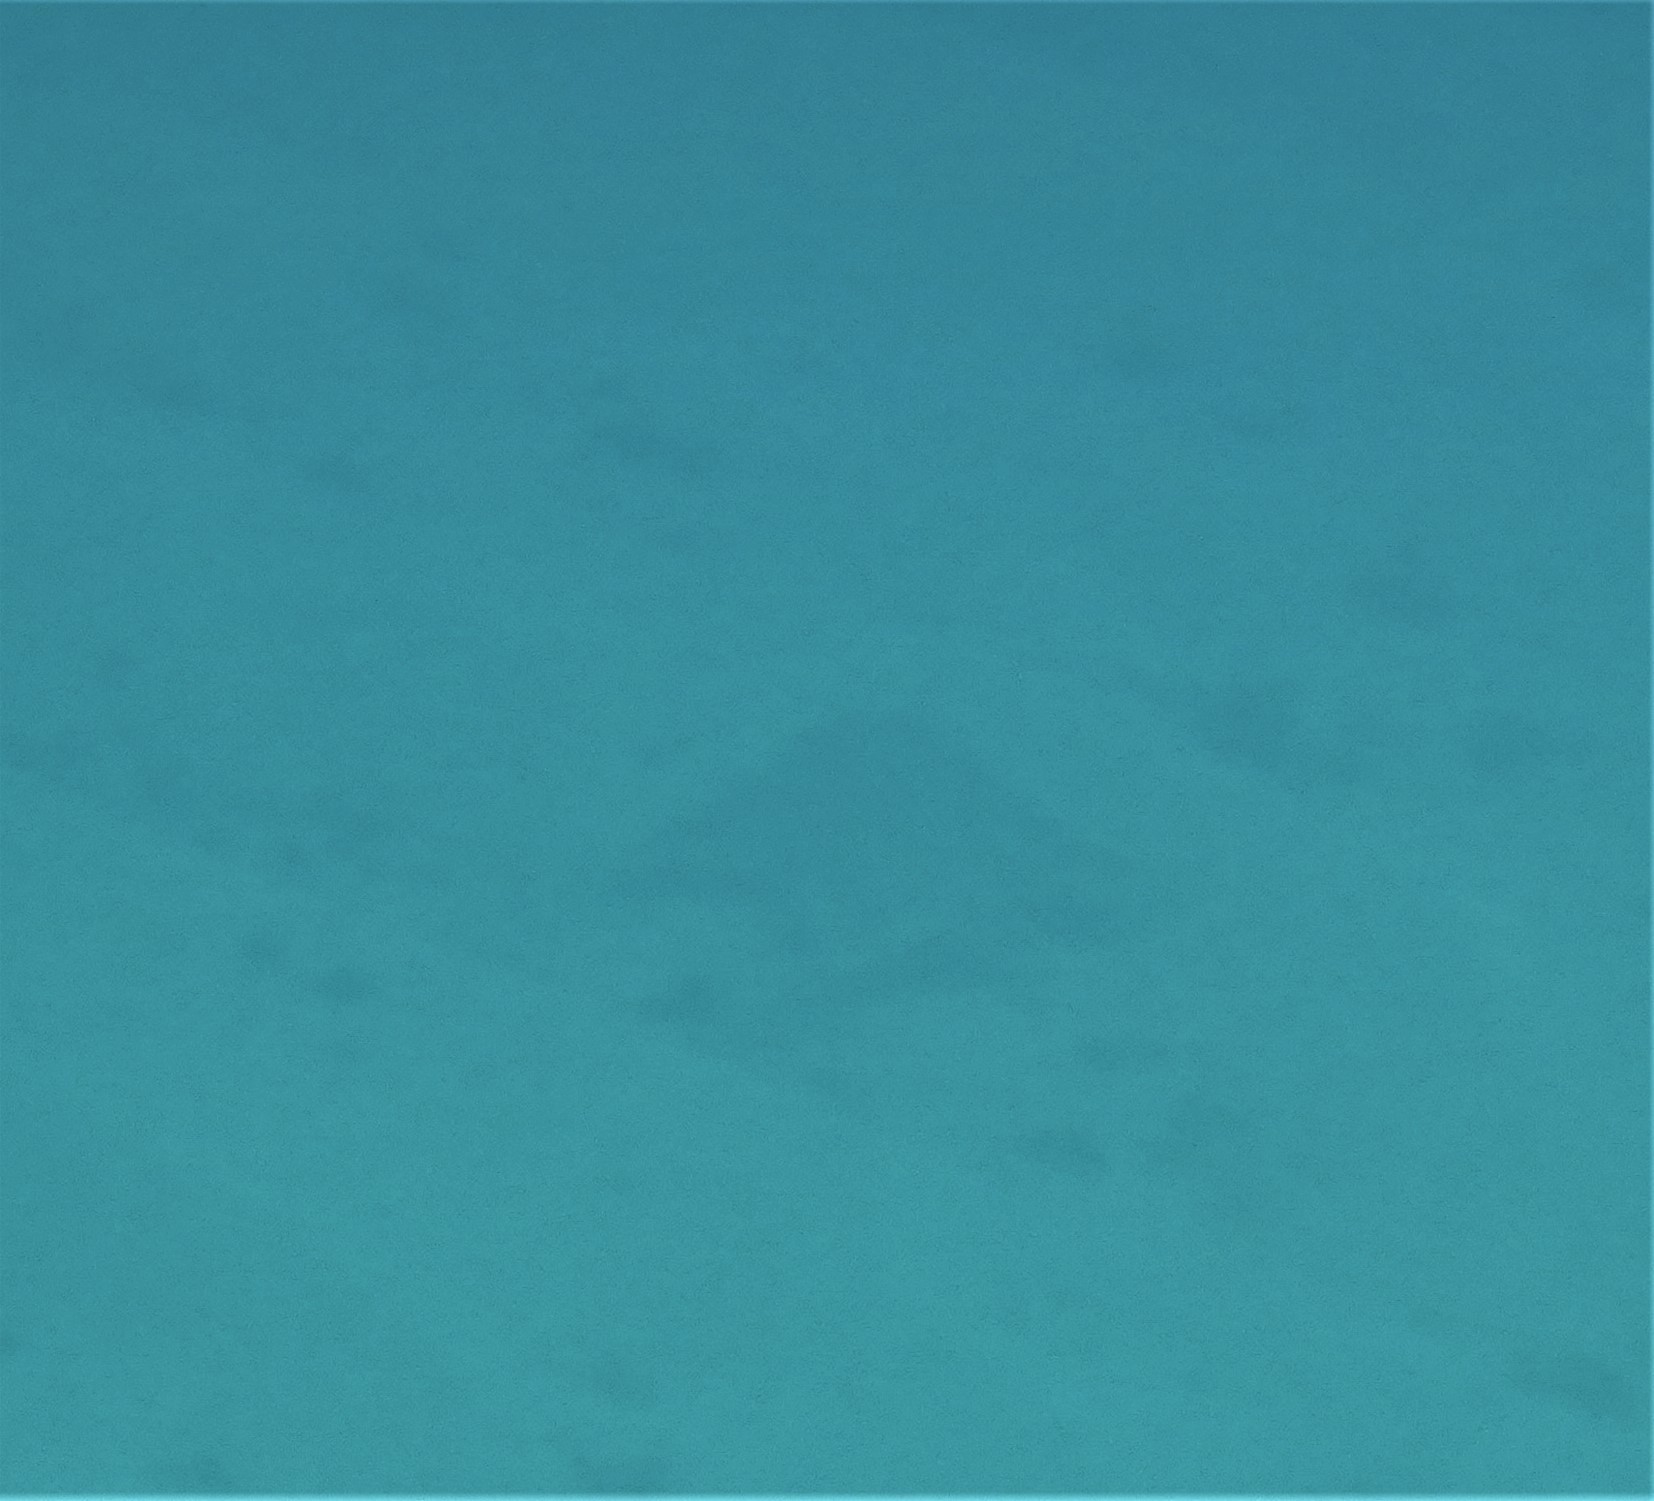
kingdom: Animalia
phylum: Chordata
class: Elasmobranchii
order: Squatiniformes
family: Squatinidae
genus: Squatina
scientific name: Squatina squatina
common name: Angel shark
